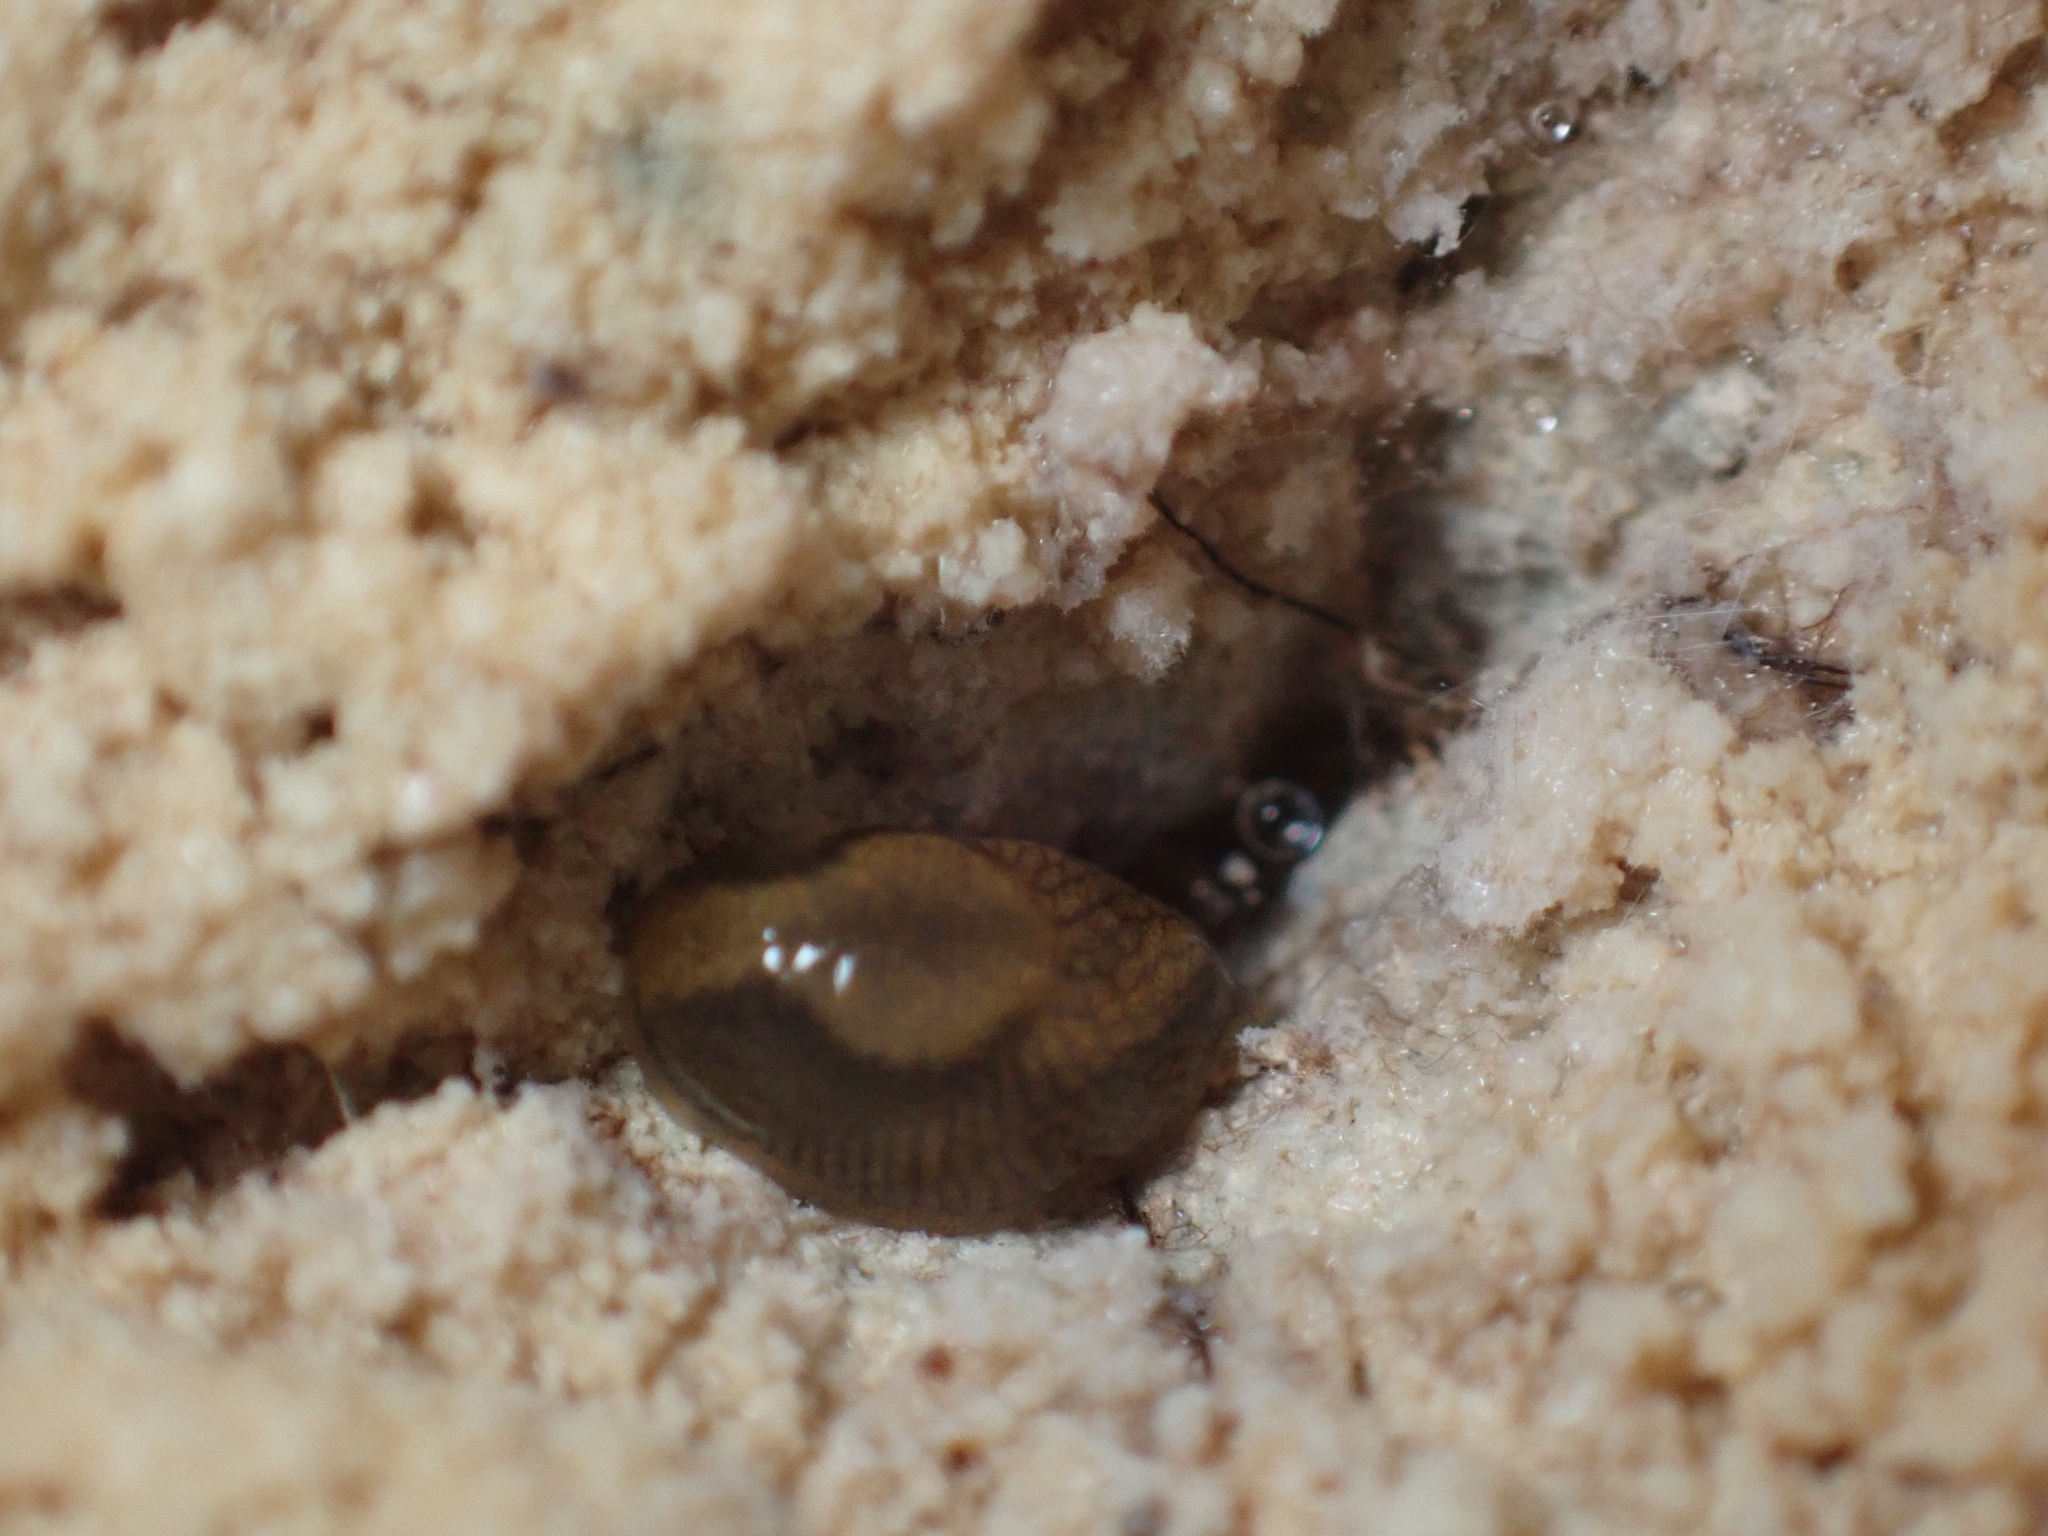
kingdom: Animalia
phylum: Mollusca
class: Gastropoda
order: Stylommatophora
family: Arionidae
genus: Arion
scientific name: Arion vulgaris
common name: Lusitanian slug
